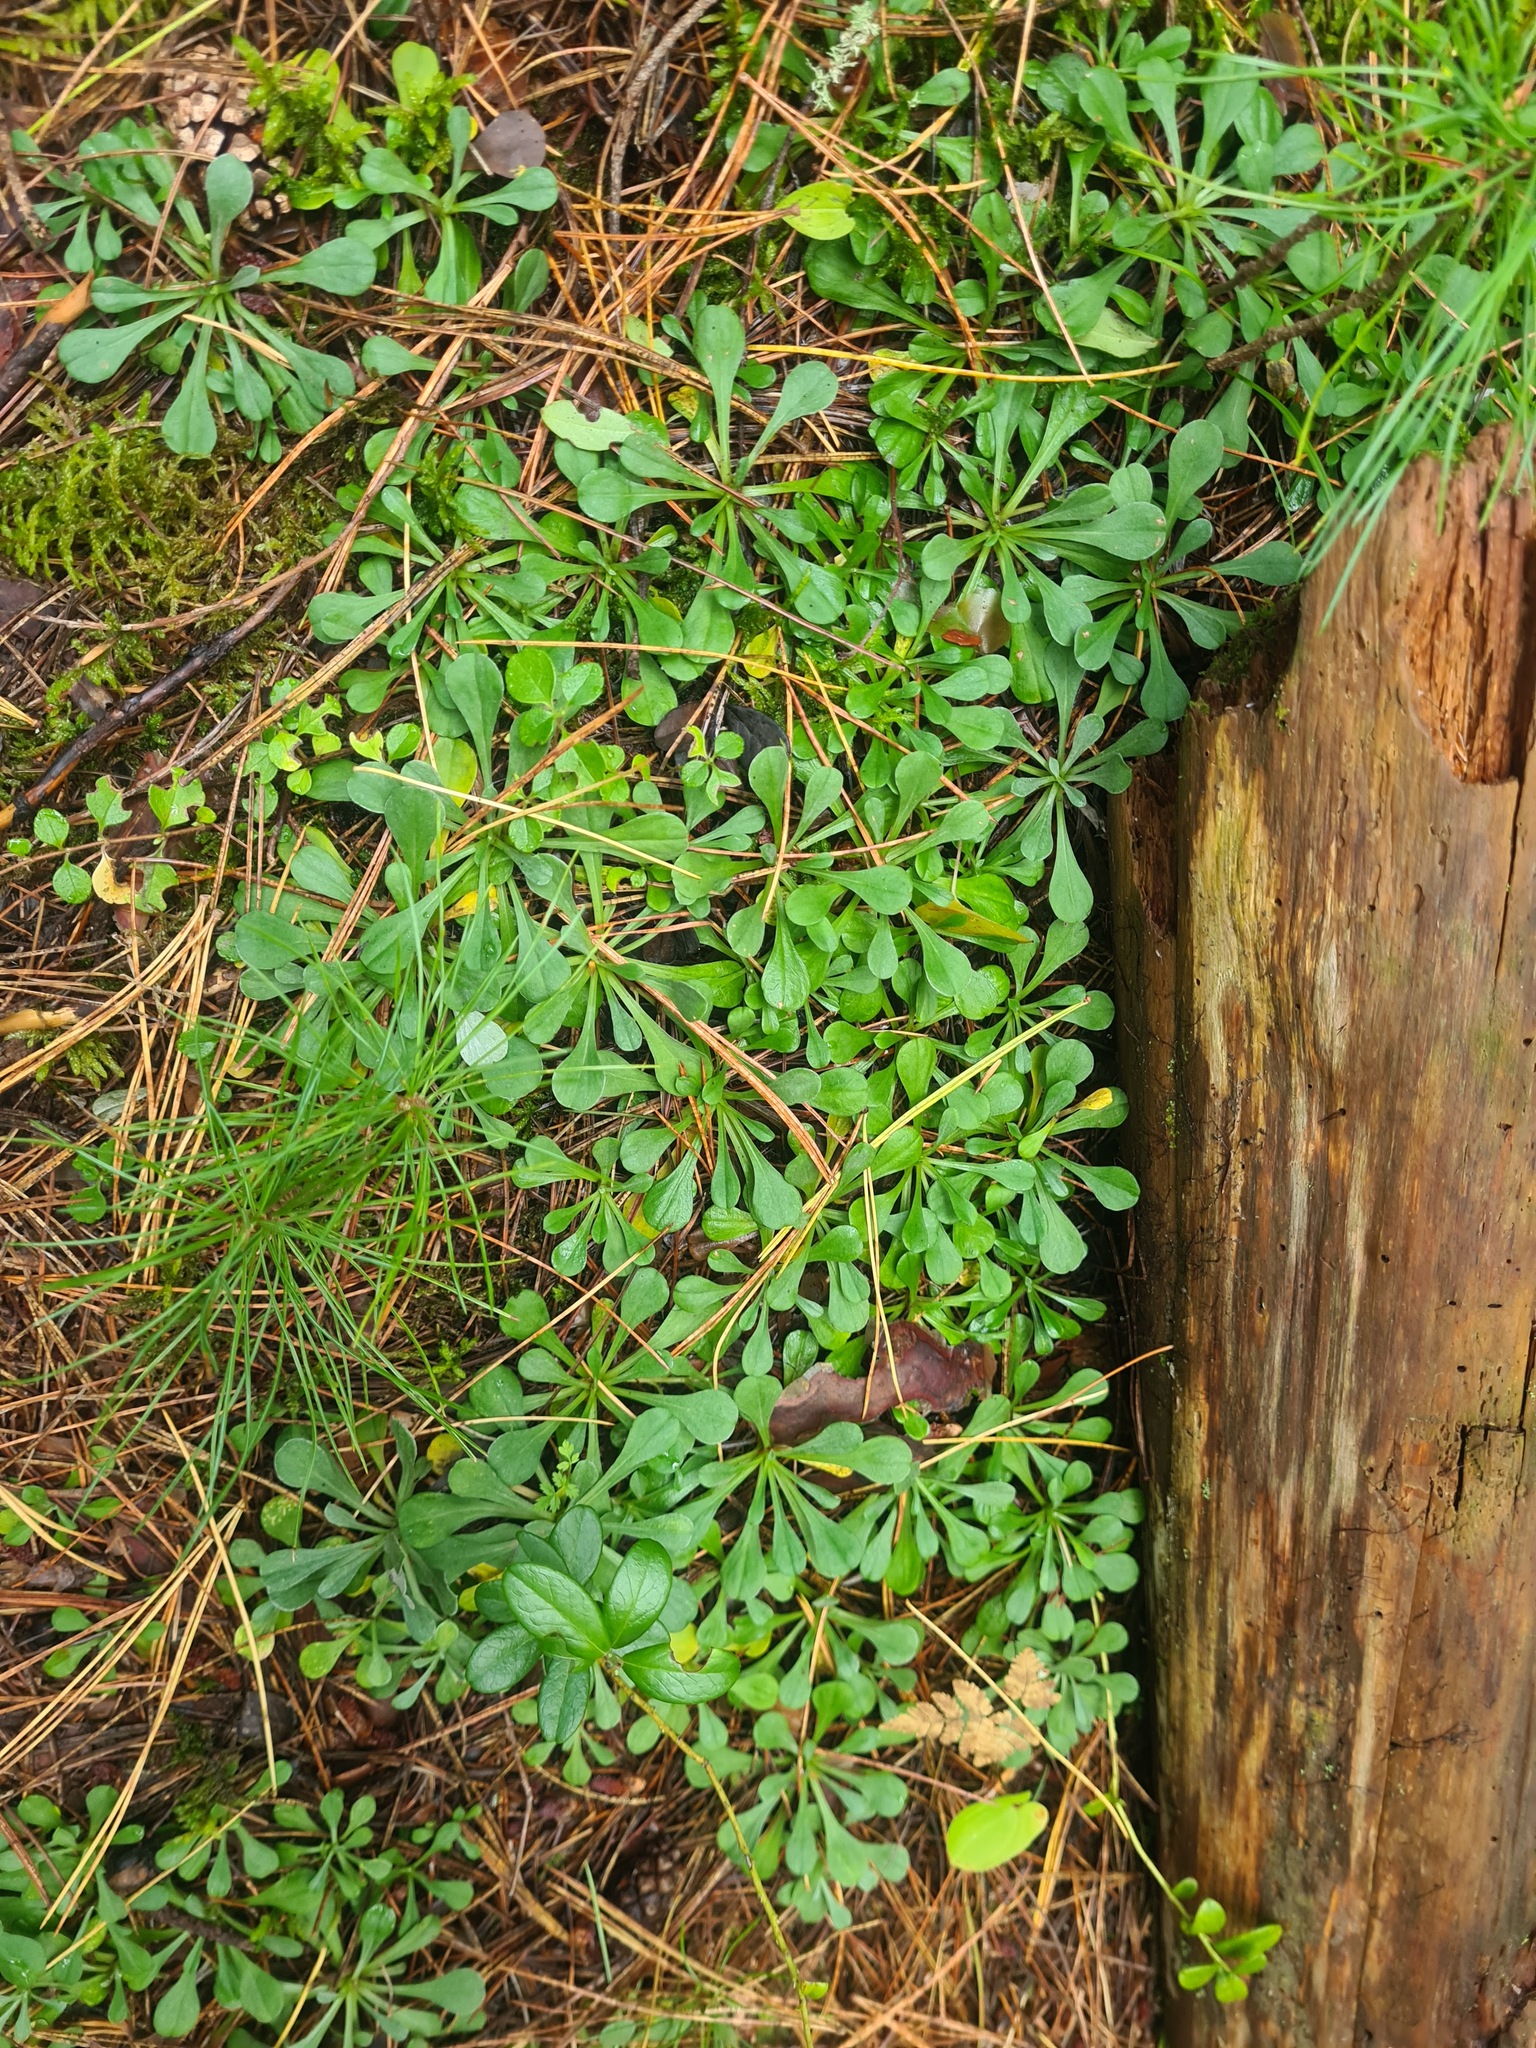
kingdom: Plantae
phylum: Tracheophyta
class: Magnoliopsida
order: Asterales
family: Asteraceae
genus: Antennaria
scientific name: Antennaria dioica
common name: Mountain everlasting
